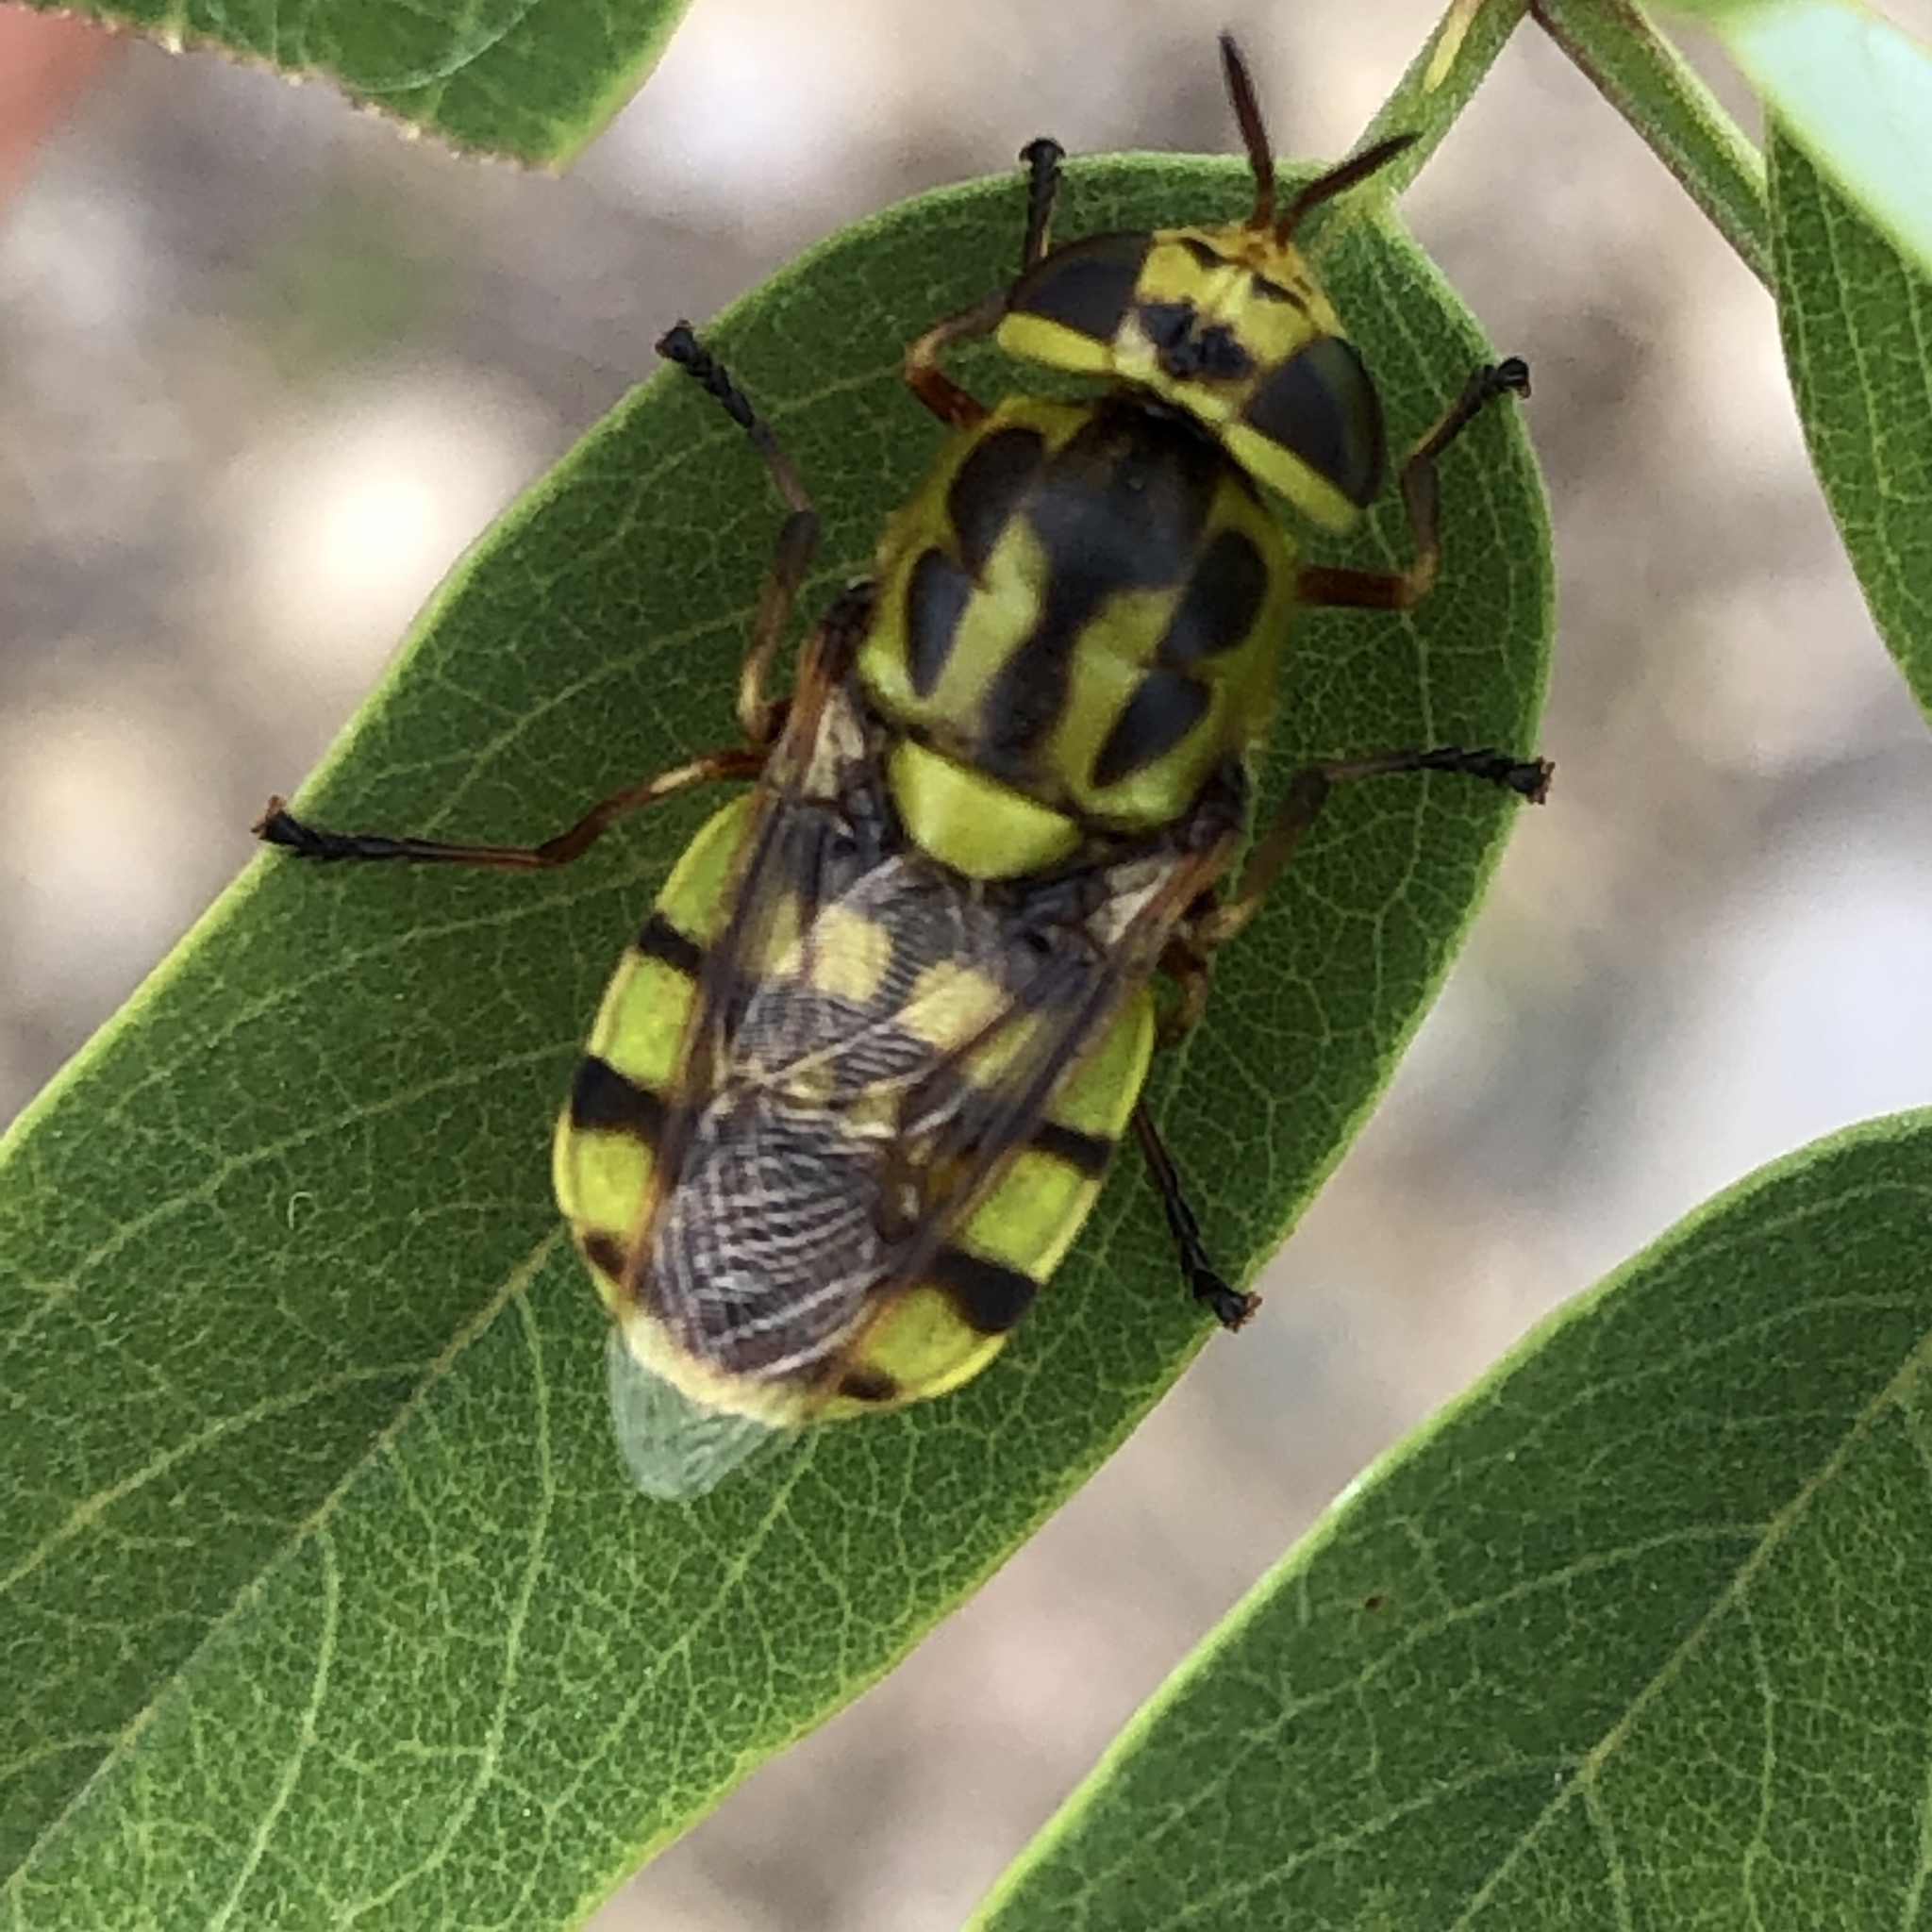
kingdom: Animalia
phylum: Arthropoda
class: Insecta
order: Diptera
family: Stratiomyidae
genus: Hedriodiscus
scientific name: Hedriodiscus binotatus
